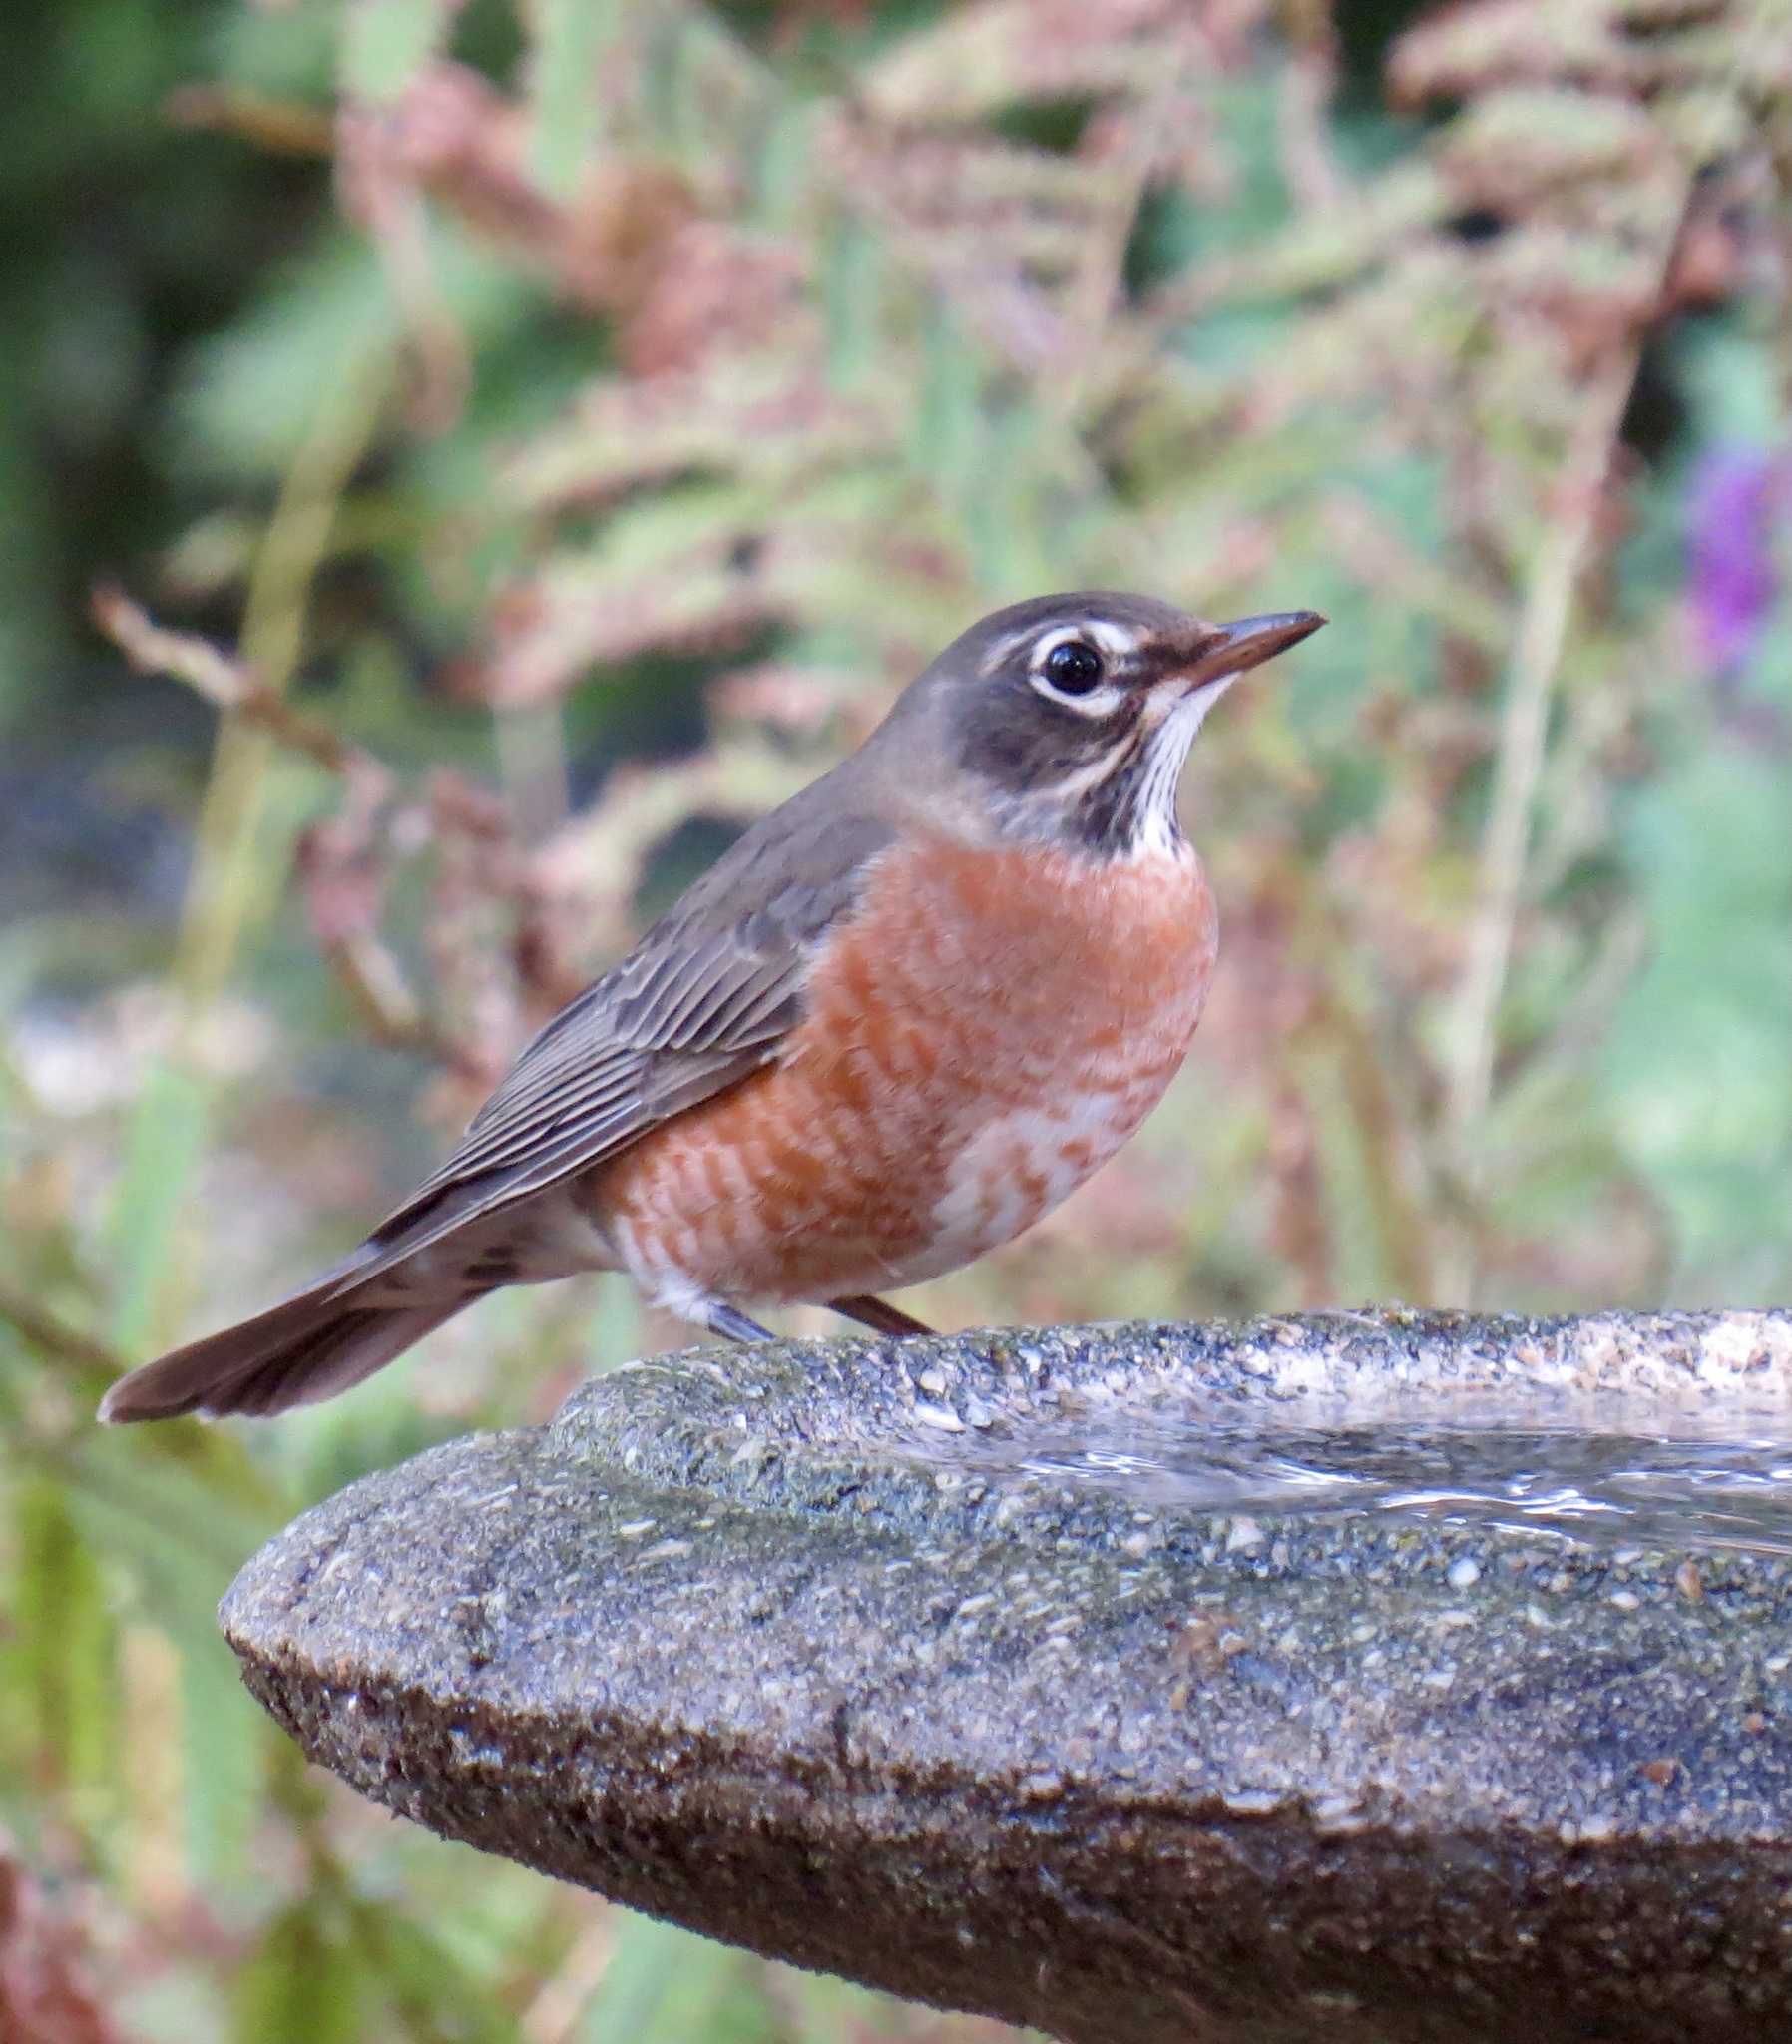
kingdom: Animalia
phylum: Chordata
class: Aves
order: Passeriformes
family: Turdidae
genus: Turdus
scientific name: Turdus migratorius
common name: American robin
